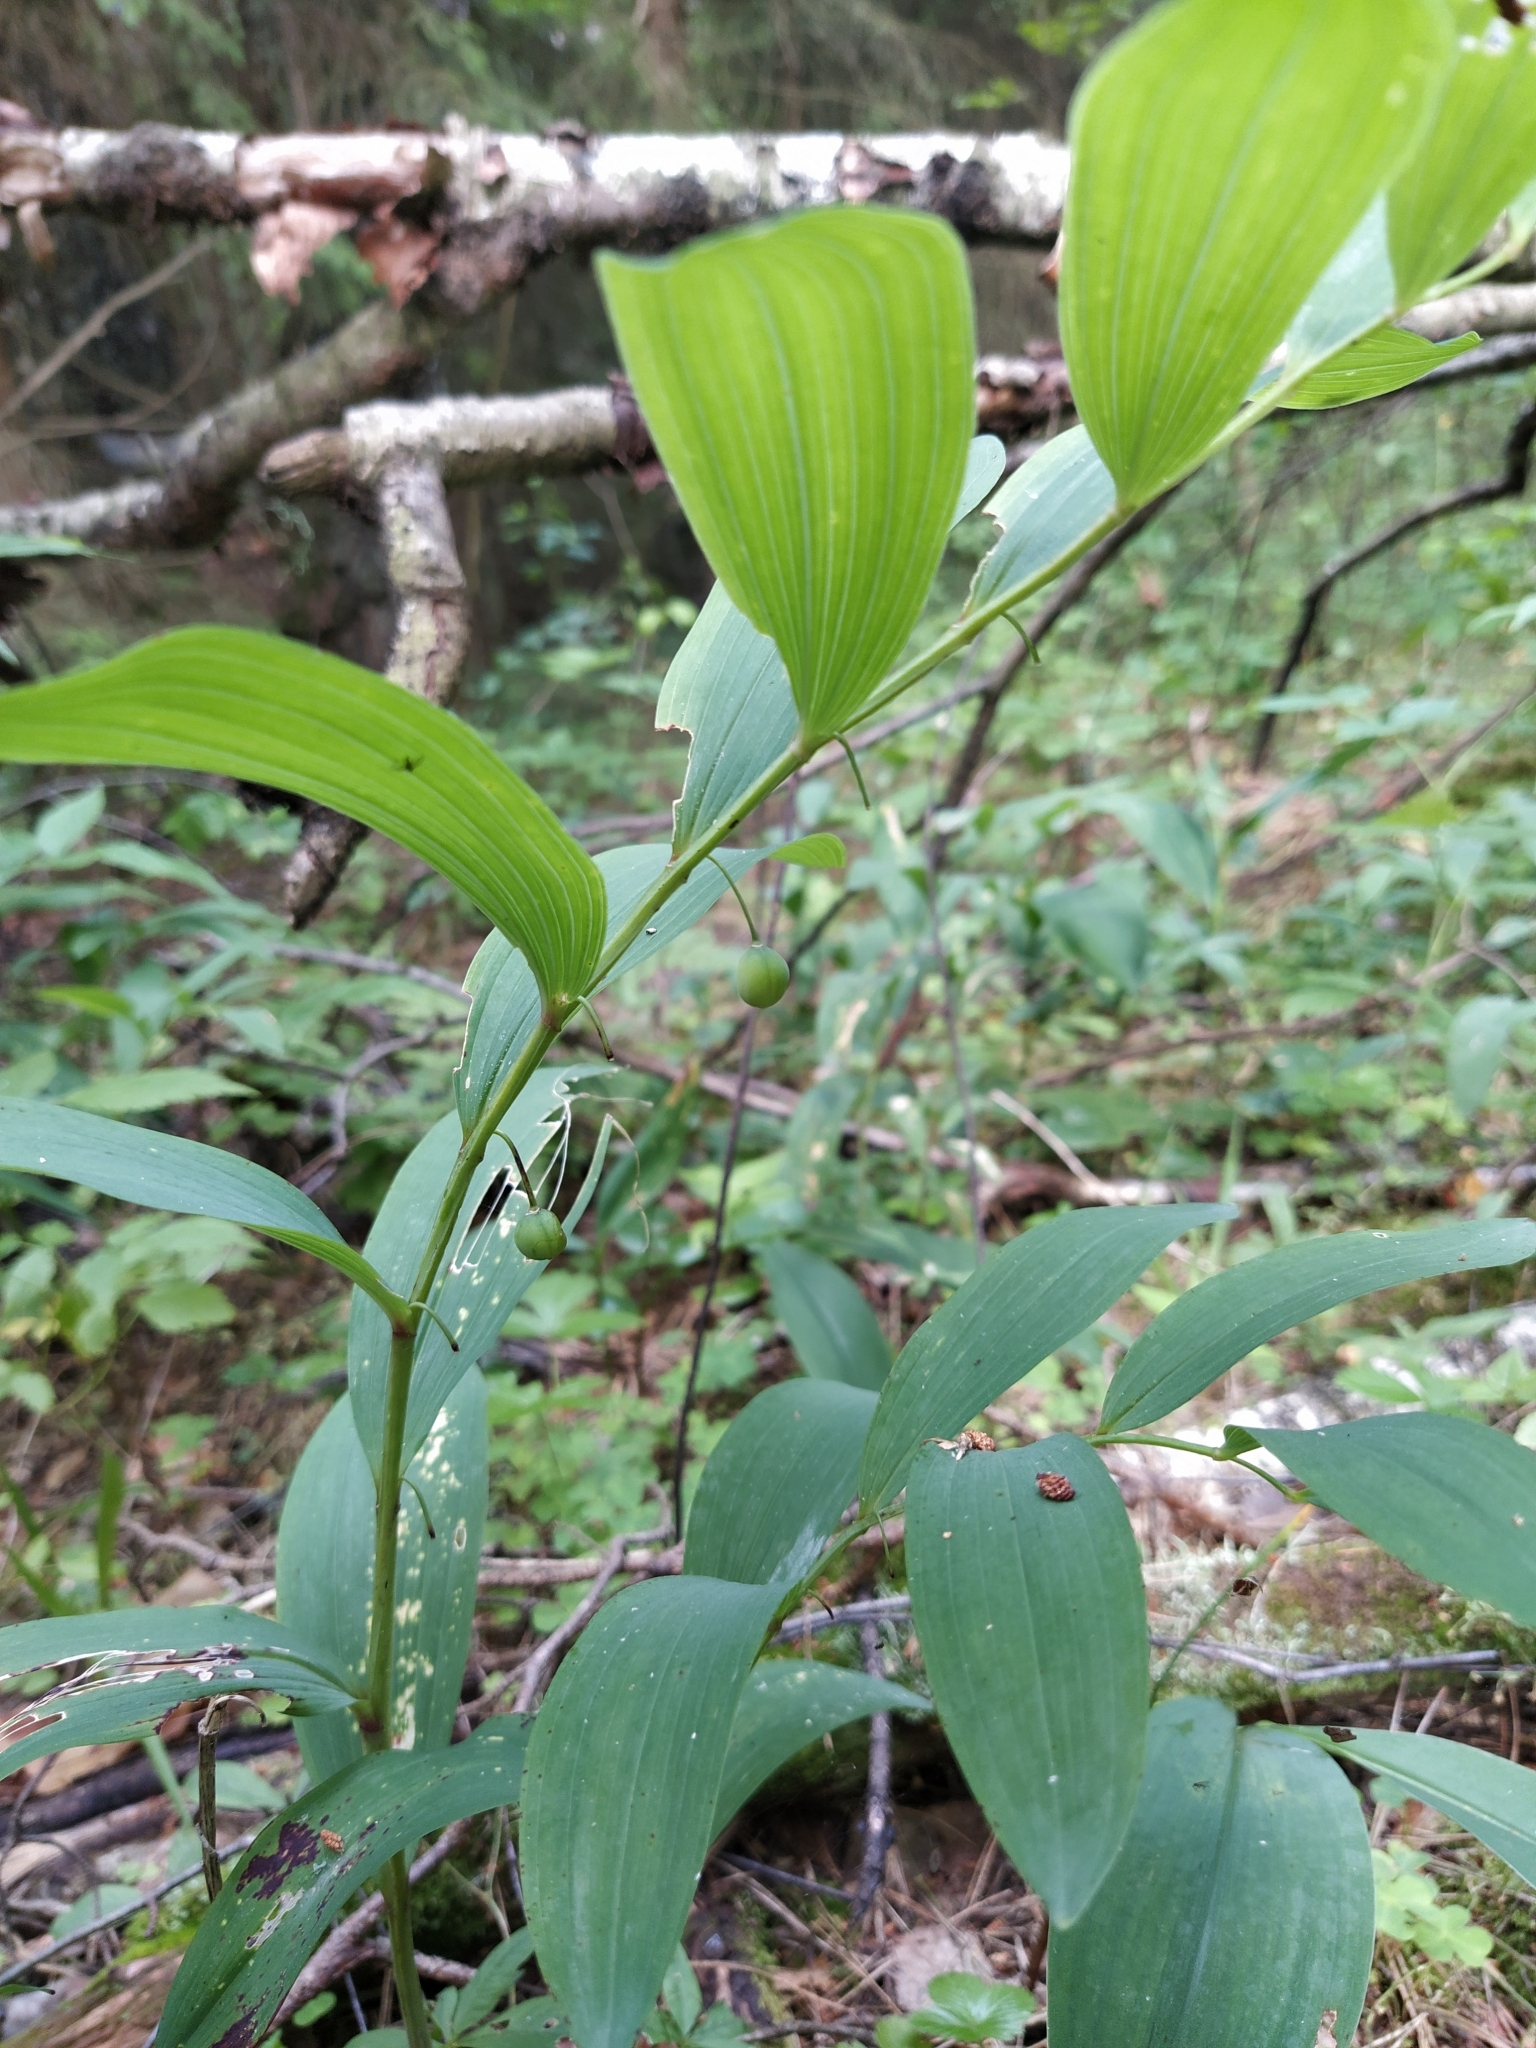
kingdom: Plantae
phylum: Tracheophyta
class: Liliopsida
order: Asparagales
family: Asparagaceae
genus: Polygonatum
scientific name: Polygonatum odoratum
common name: Angular solomon's-seal
